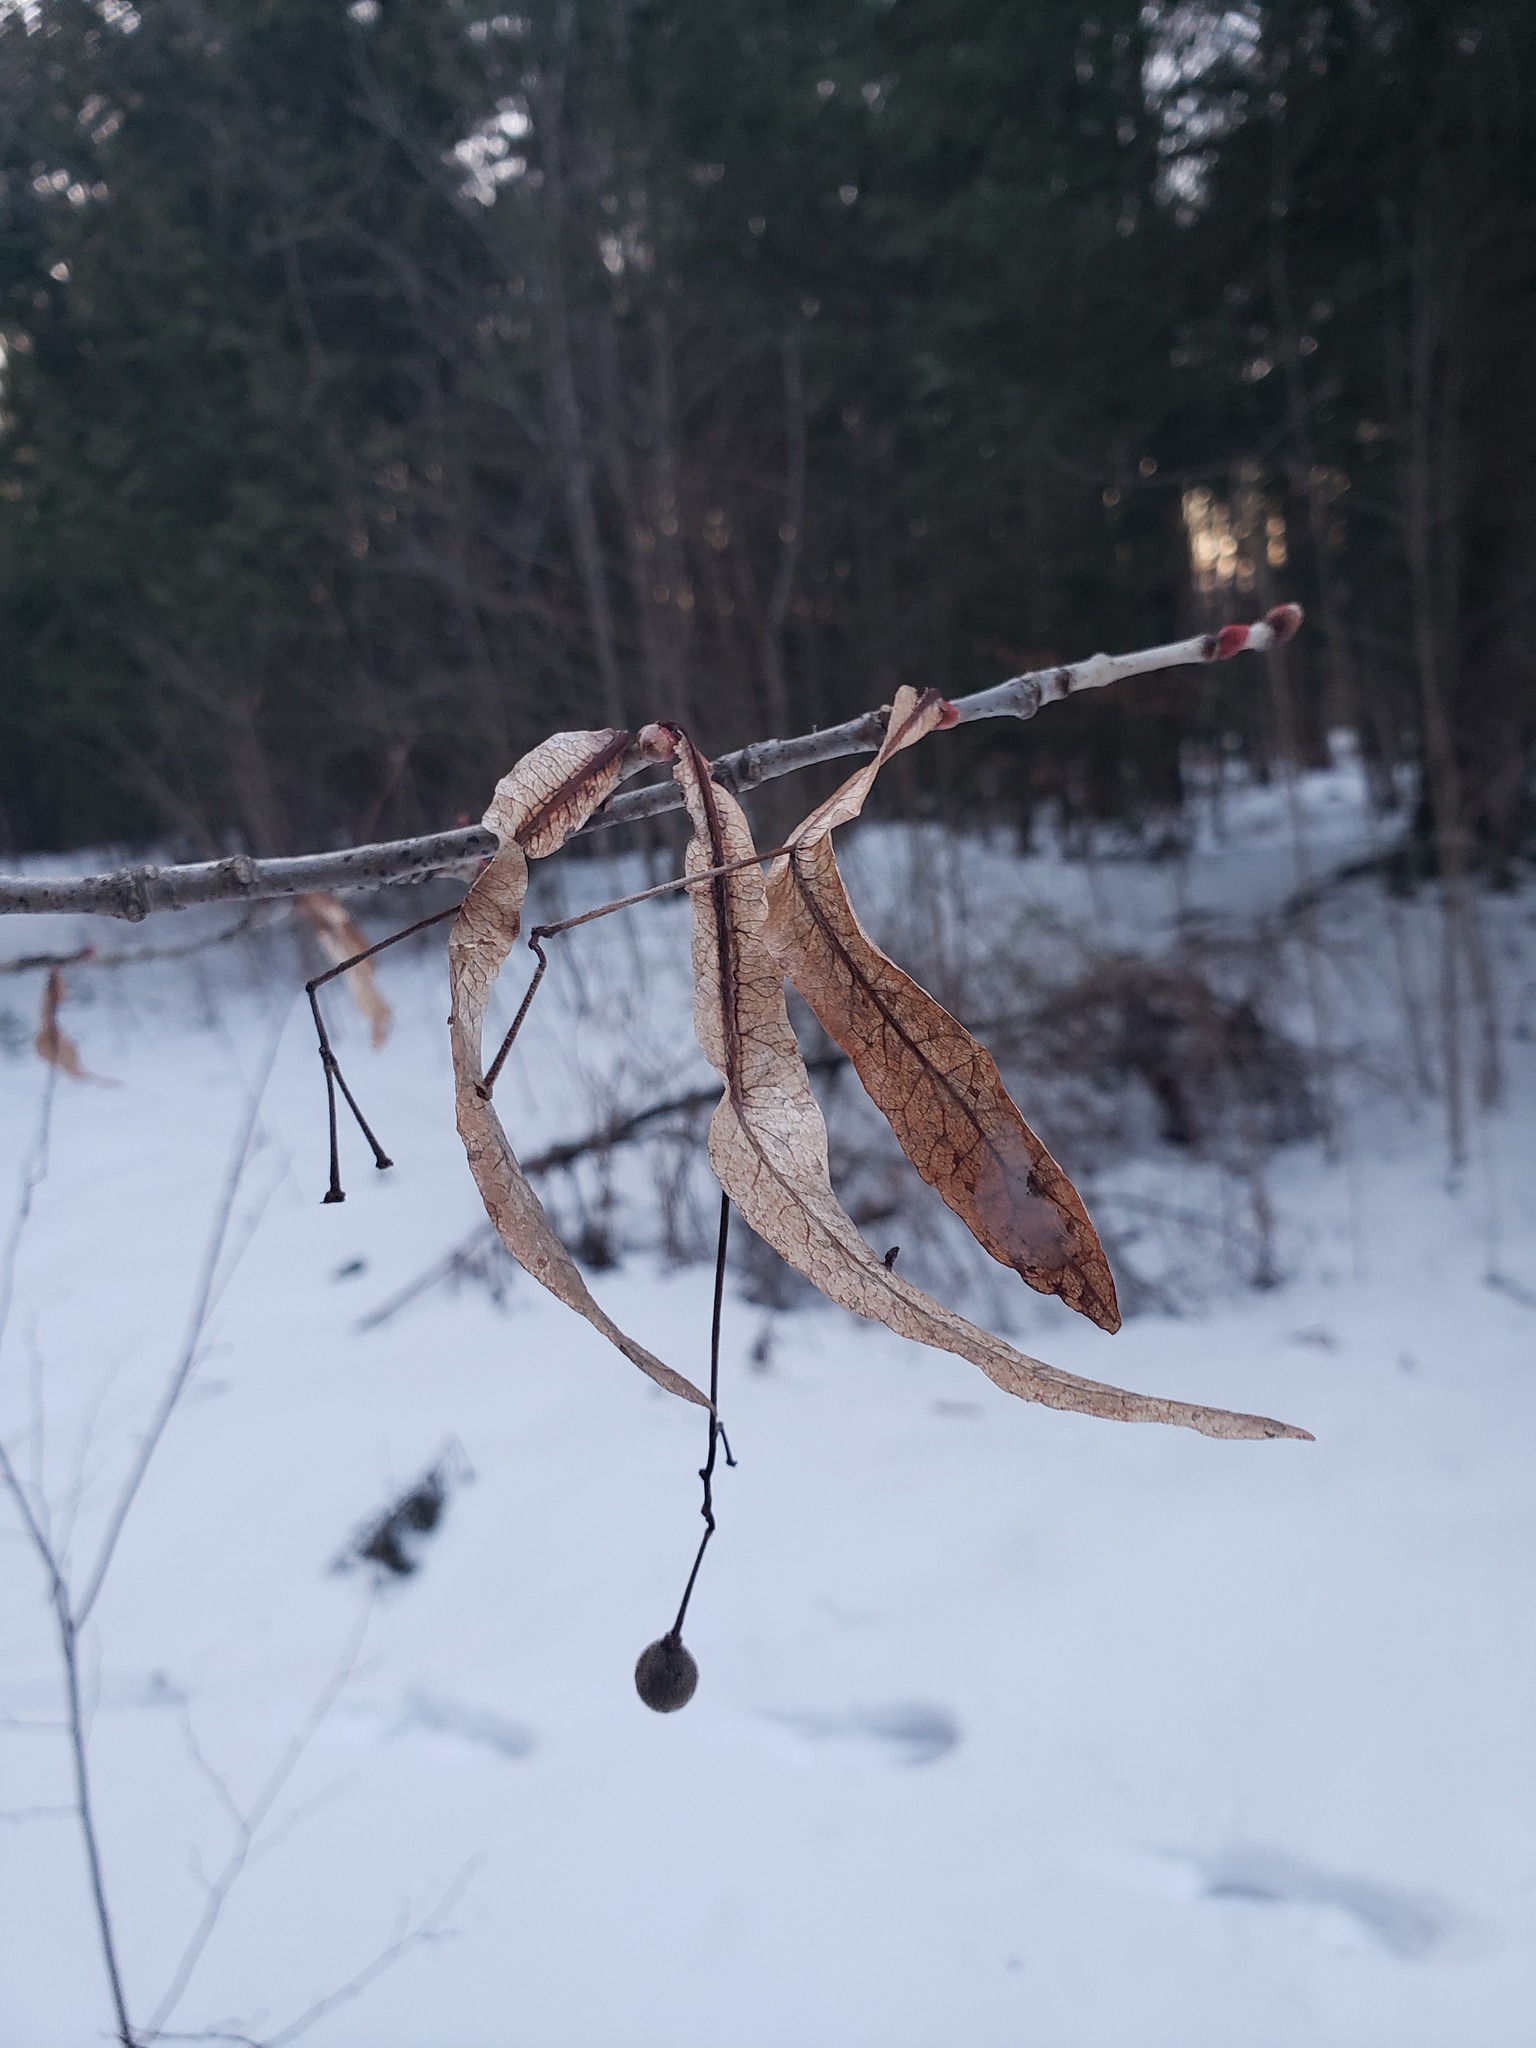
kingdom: Plantae
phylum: Tracheophyta
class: Magnoliopsida
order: Malvales
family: Malvaceae
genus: Tilia
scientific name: Tilia americana
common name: Basswood
